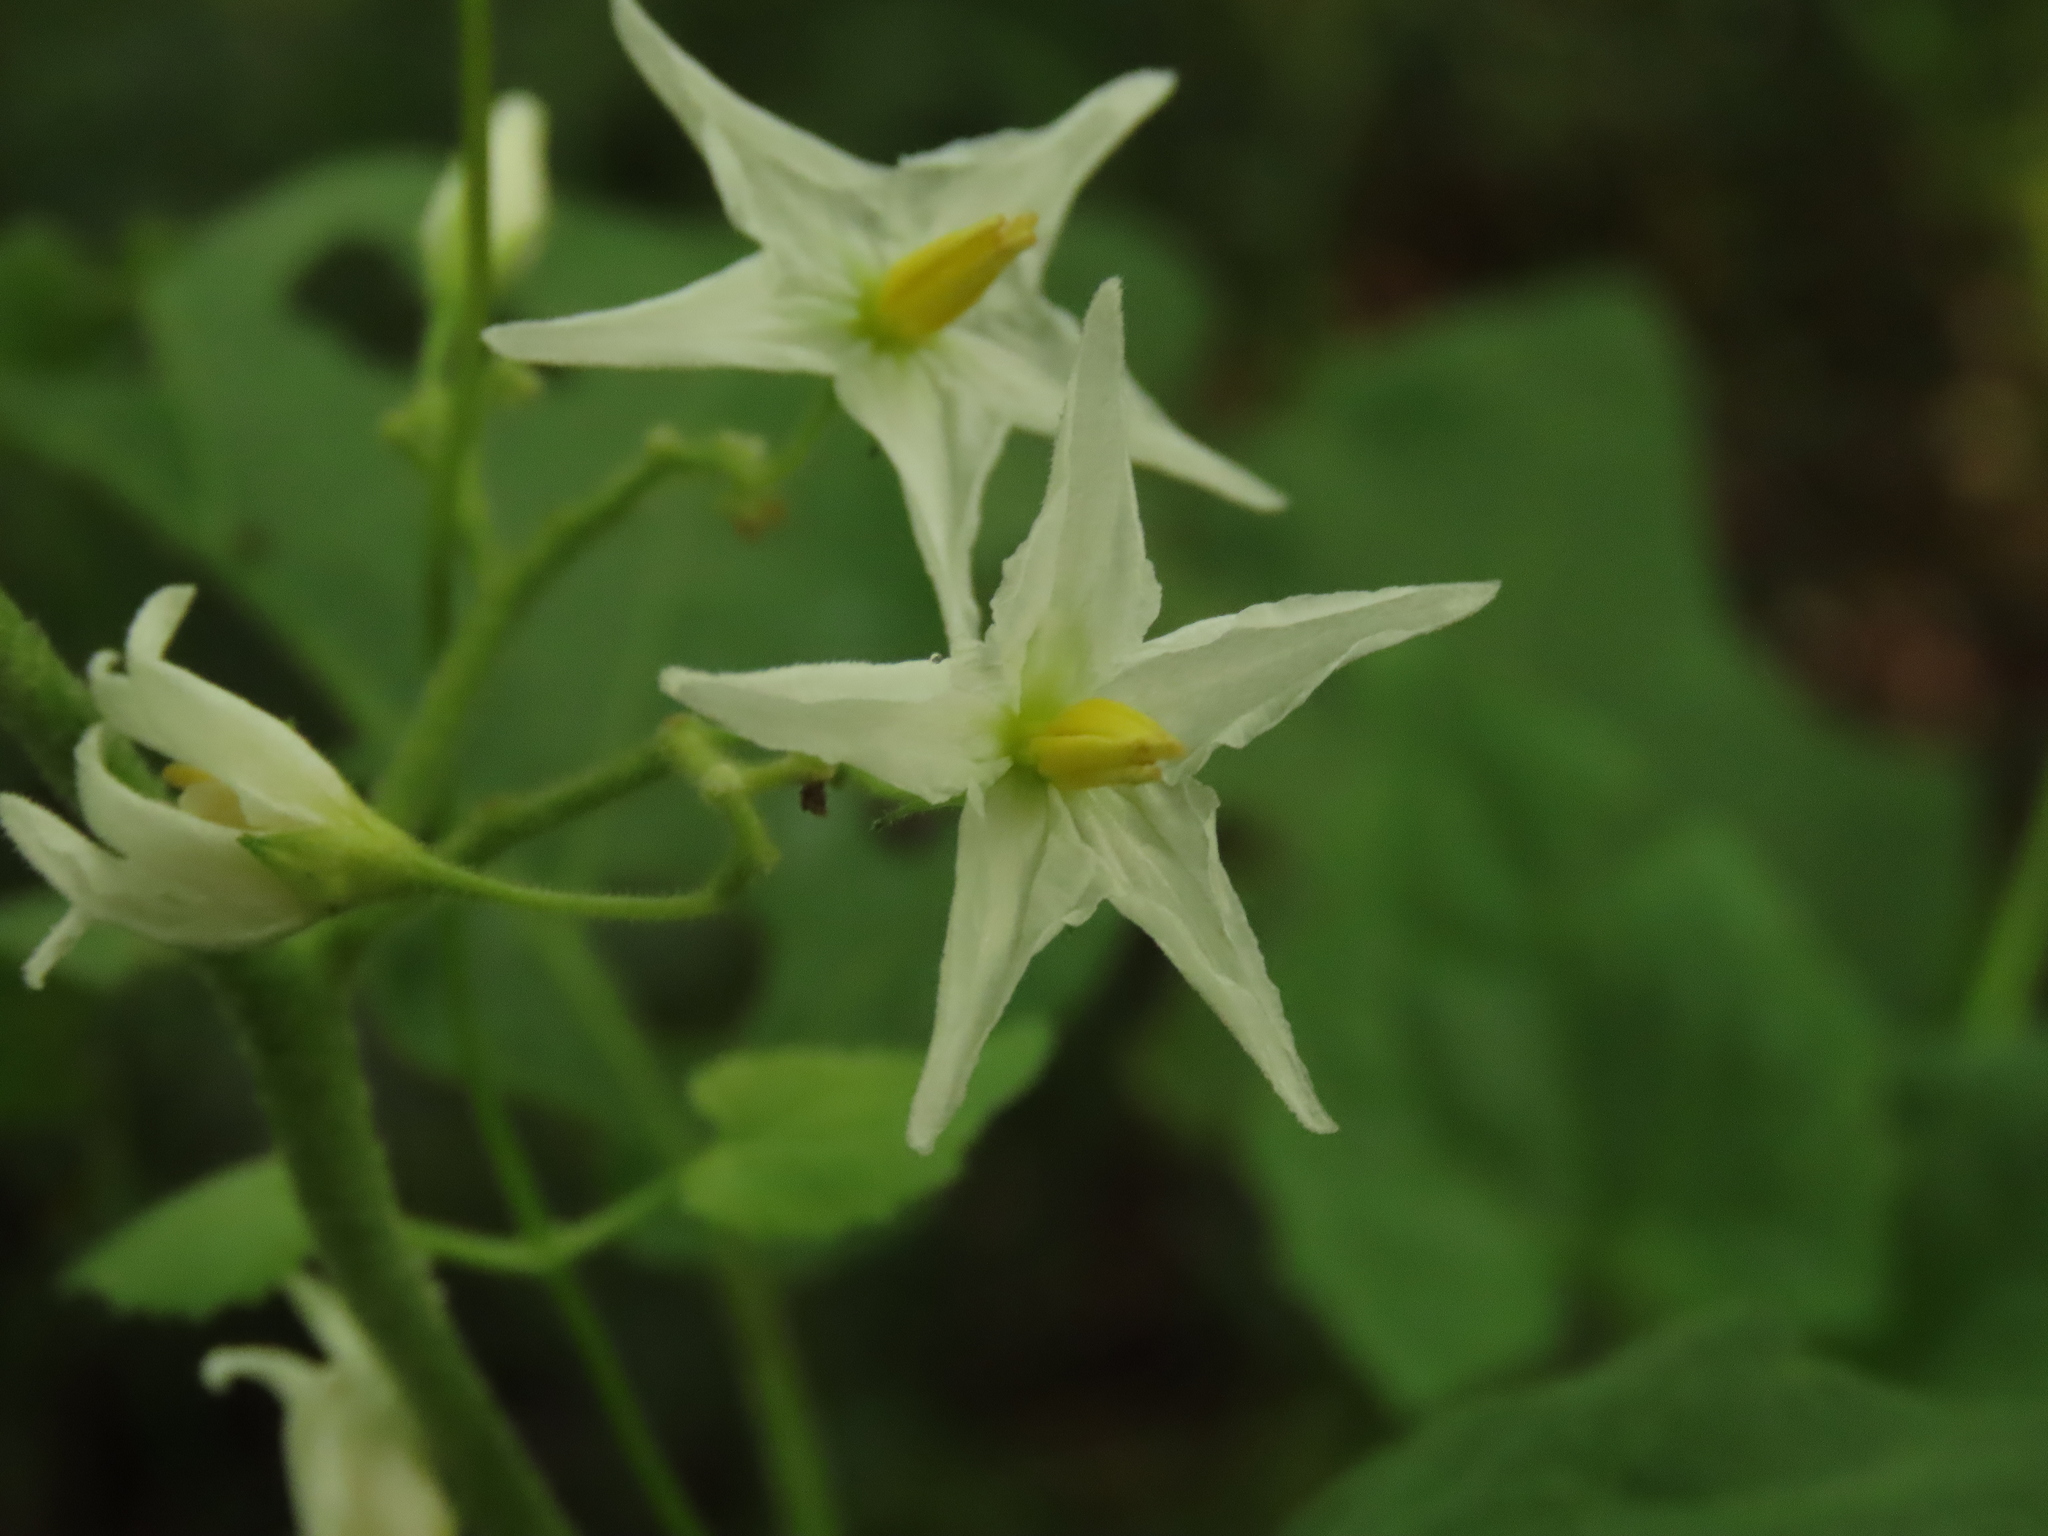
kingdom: Plantae
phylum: Tracheophyta
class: Magnoliopsida
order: Solanales
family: Solanaceae
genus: Solanum
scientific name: Solanum torvum
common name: Turkey berry
